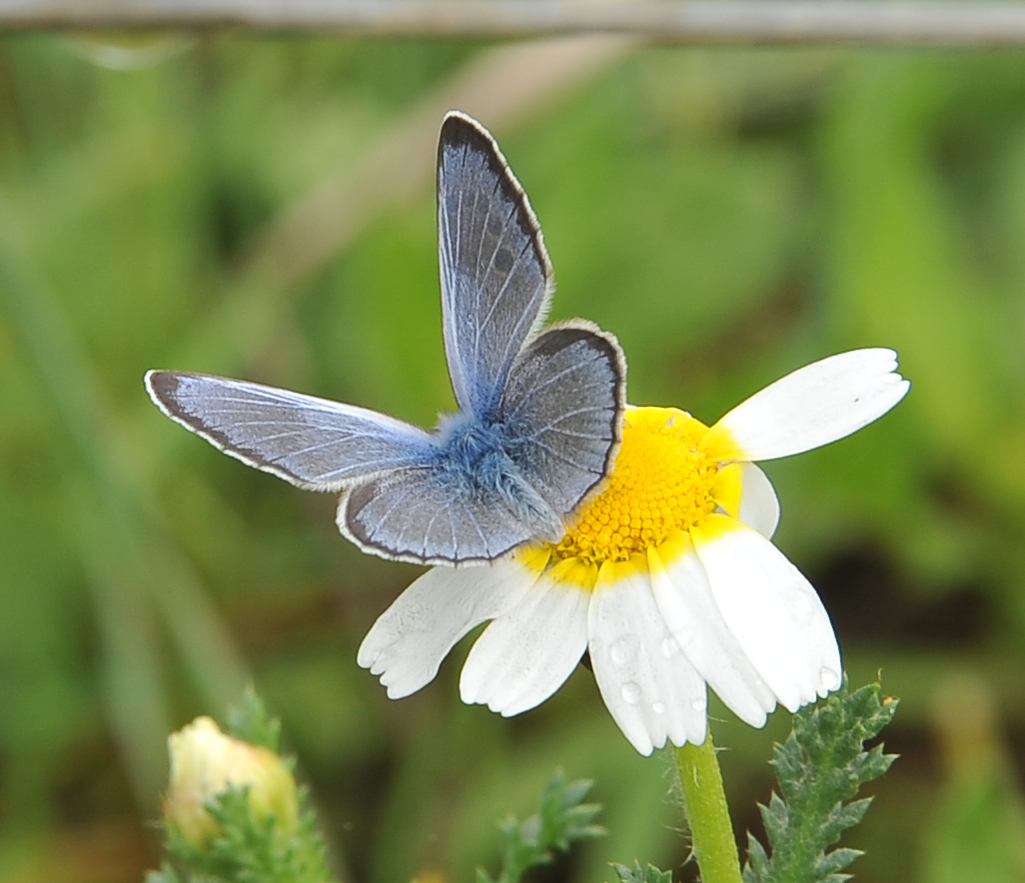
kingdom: Animalia
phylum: Arthropoda
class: Insecta
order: Lepidoptera
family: Lycaenidae
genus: Glaucopsyche
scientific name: Glaucopsyche melanops
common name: Black-eyed blue
